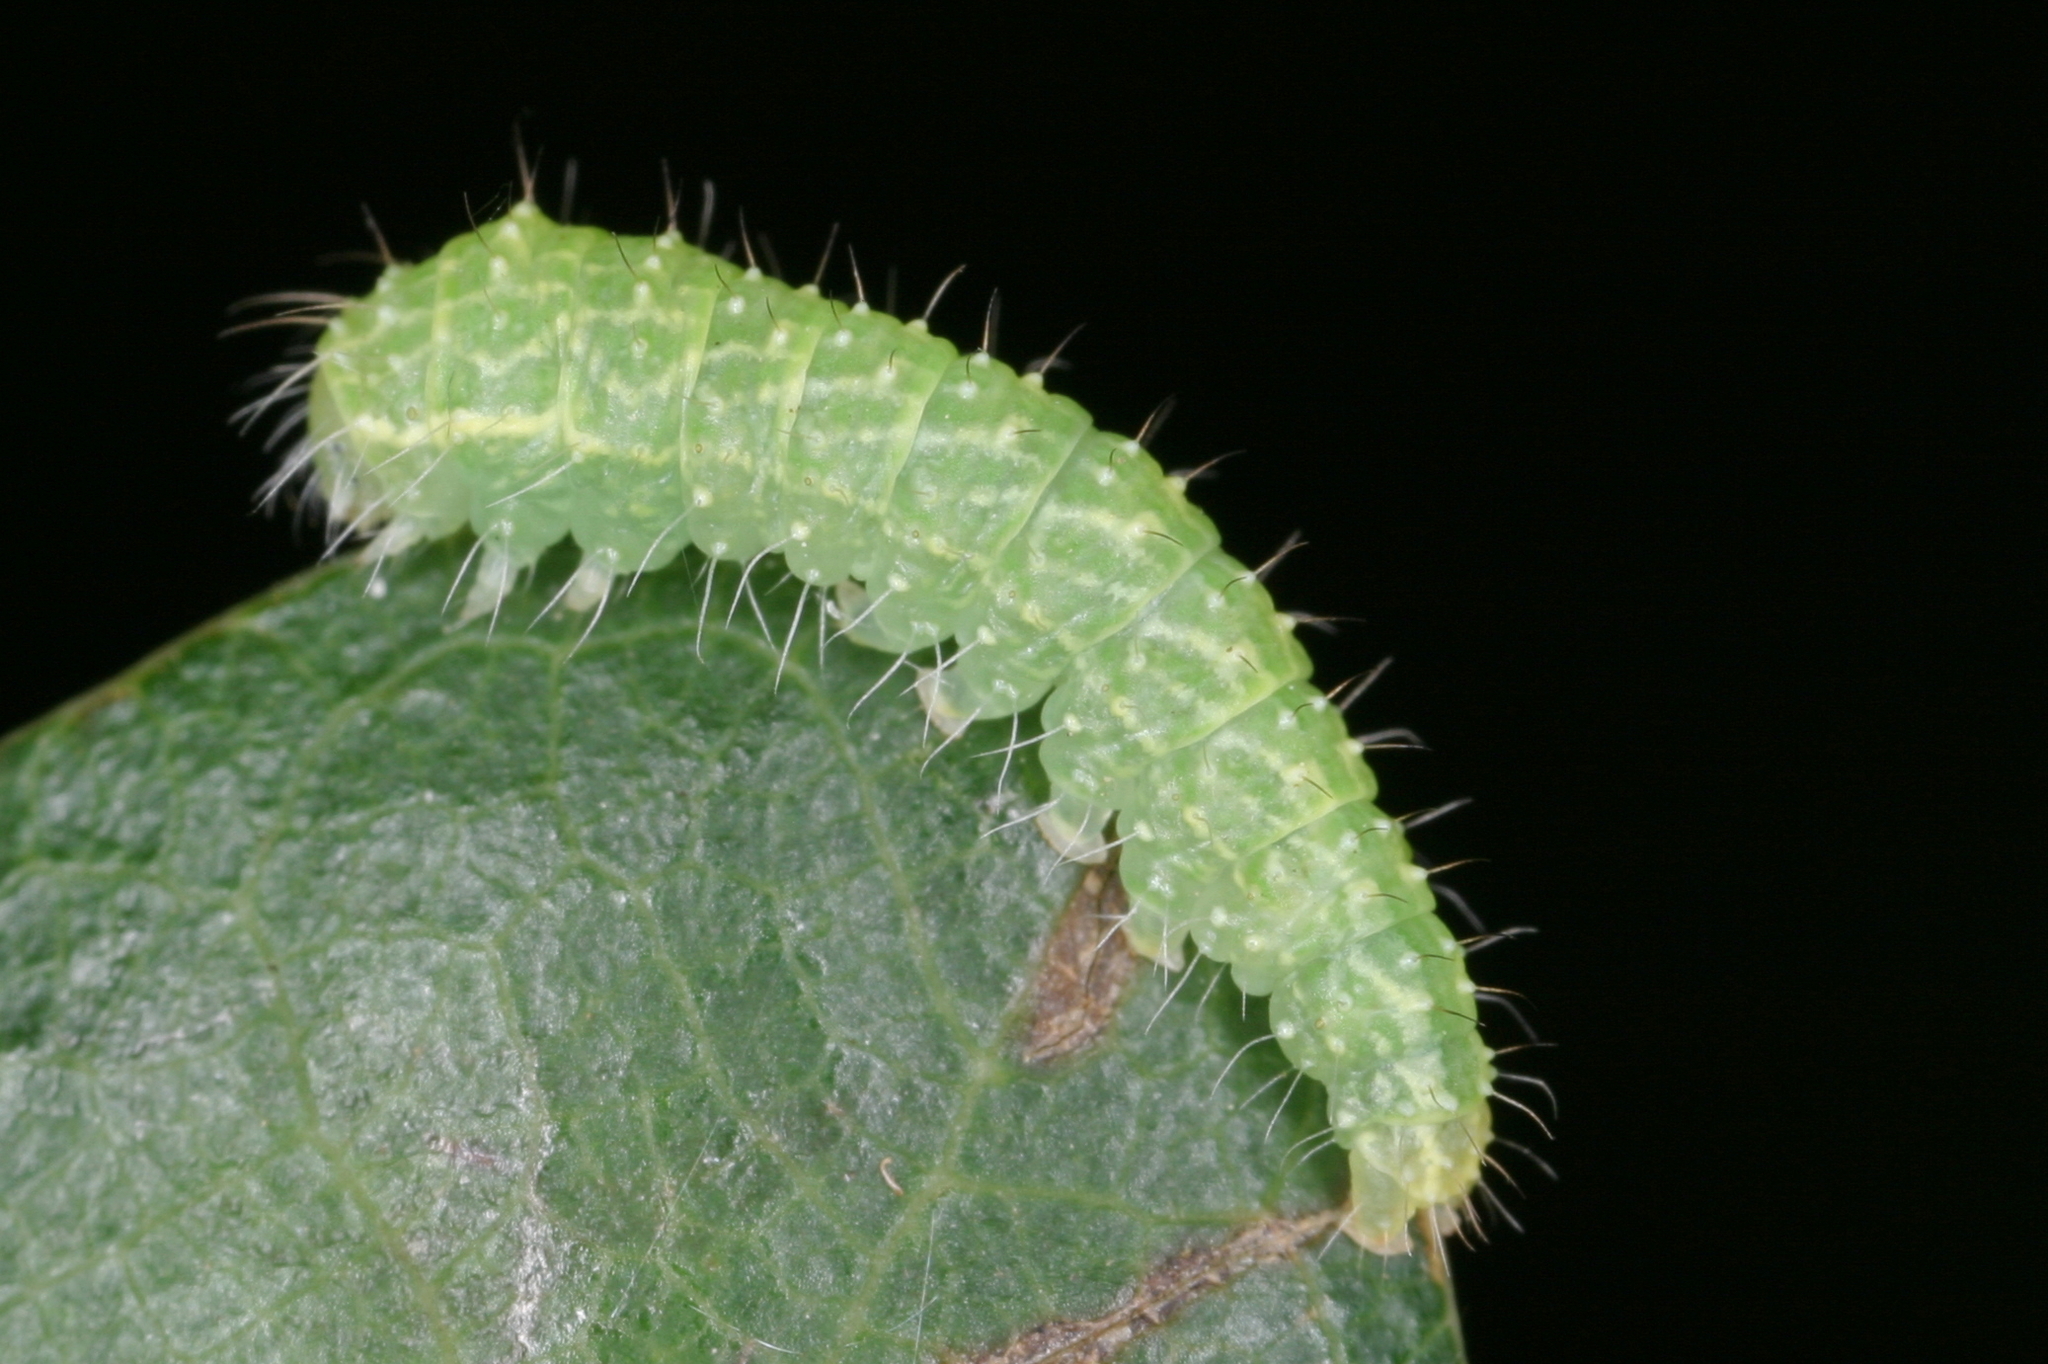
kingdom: Animalia
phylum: Arthropoda
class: Insecta
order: Lepidoptera
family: Nolidae
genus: Bena
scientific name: Bena bicolorana
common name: Scarce silver-lines
